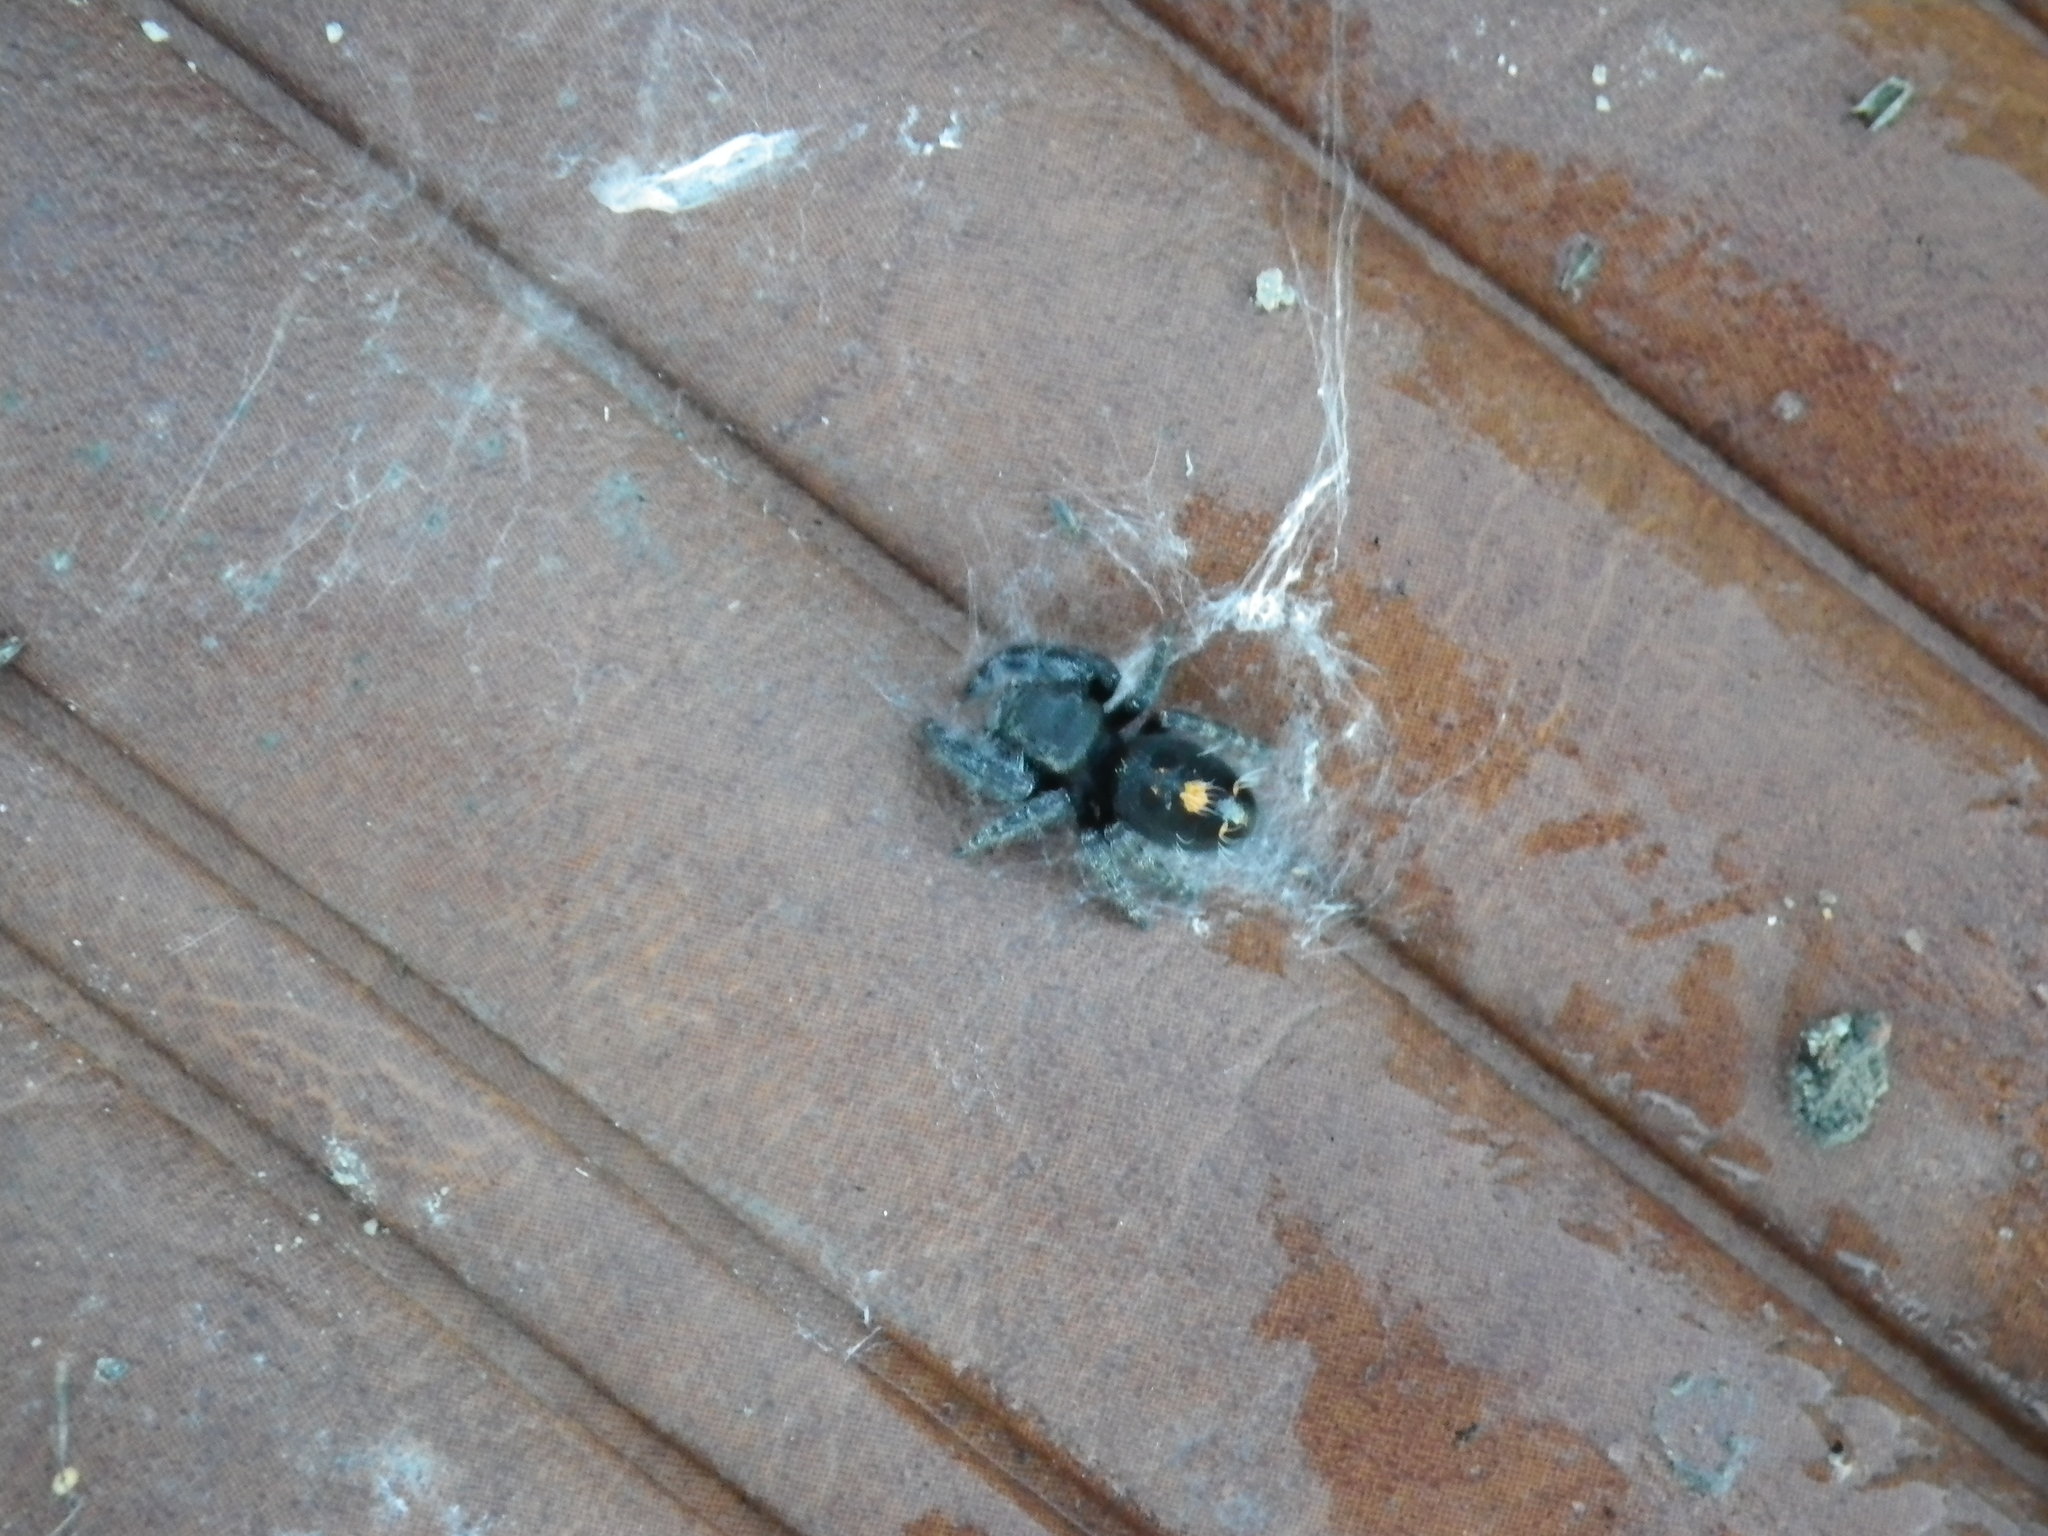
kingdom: Animalia
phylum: Arthropoda
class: Arachnida
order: Araneae
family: Salticidae
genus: Phidippus
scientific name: Phidippus audax
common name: Bold jumper
